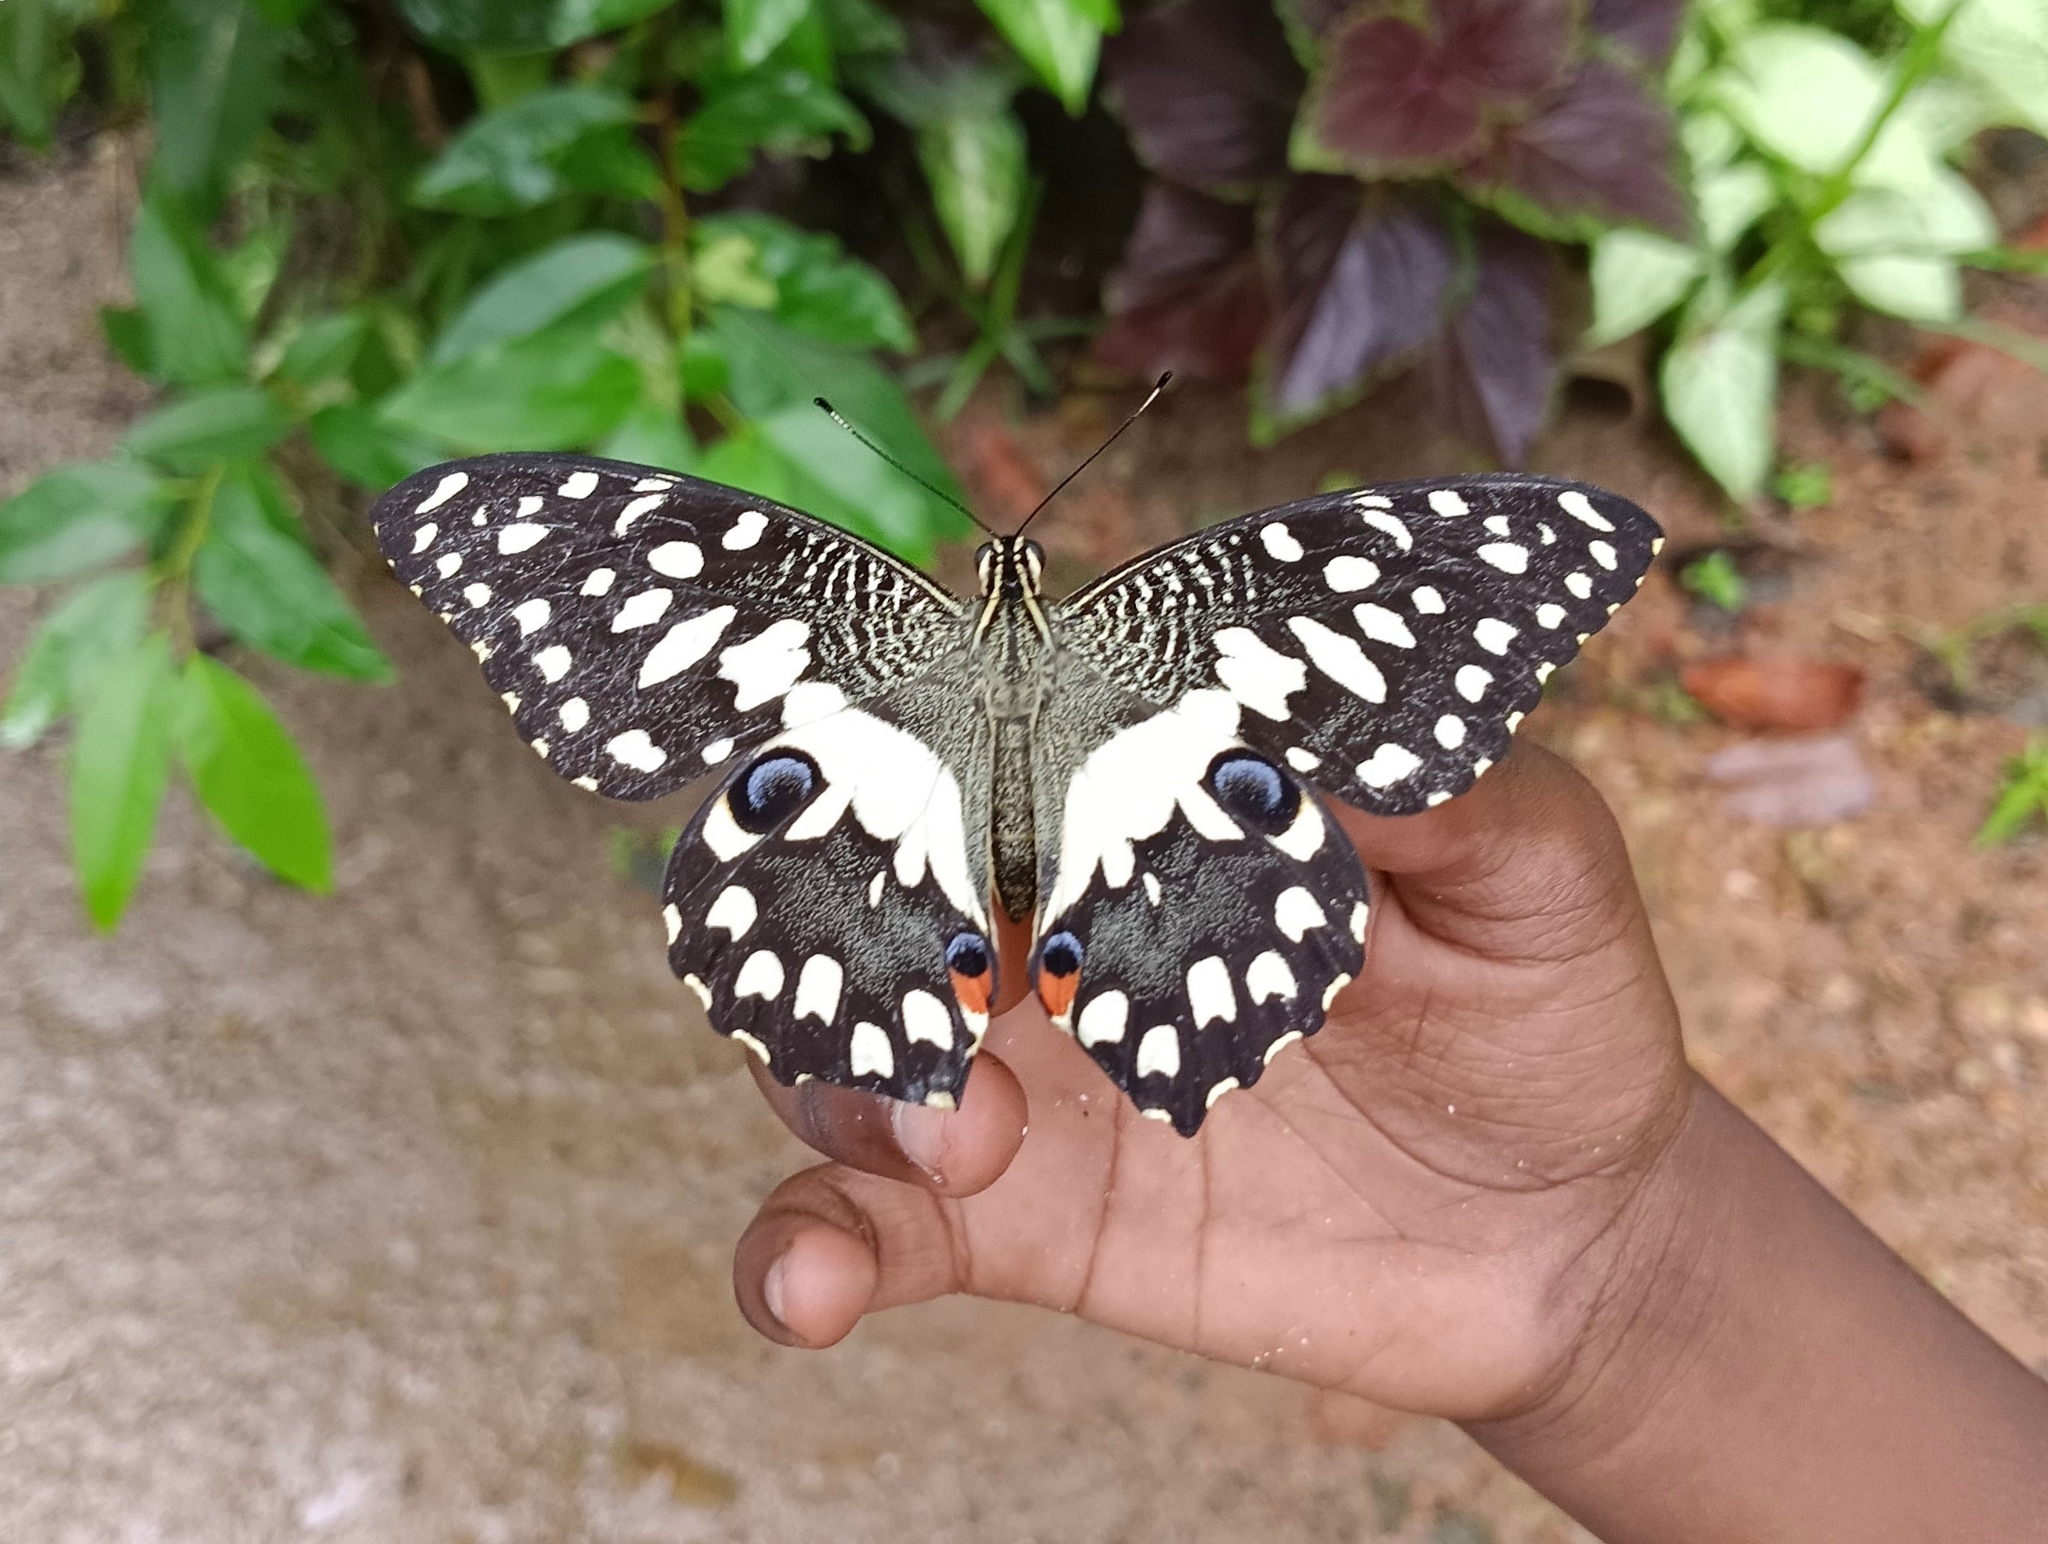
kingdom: Animalia
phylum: Arthropoda
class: Insecta
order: Lepidoptera
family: Papilionidae
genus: Papilio
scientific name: Papilio demoleus
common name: Lime butterfly
